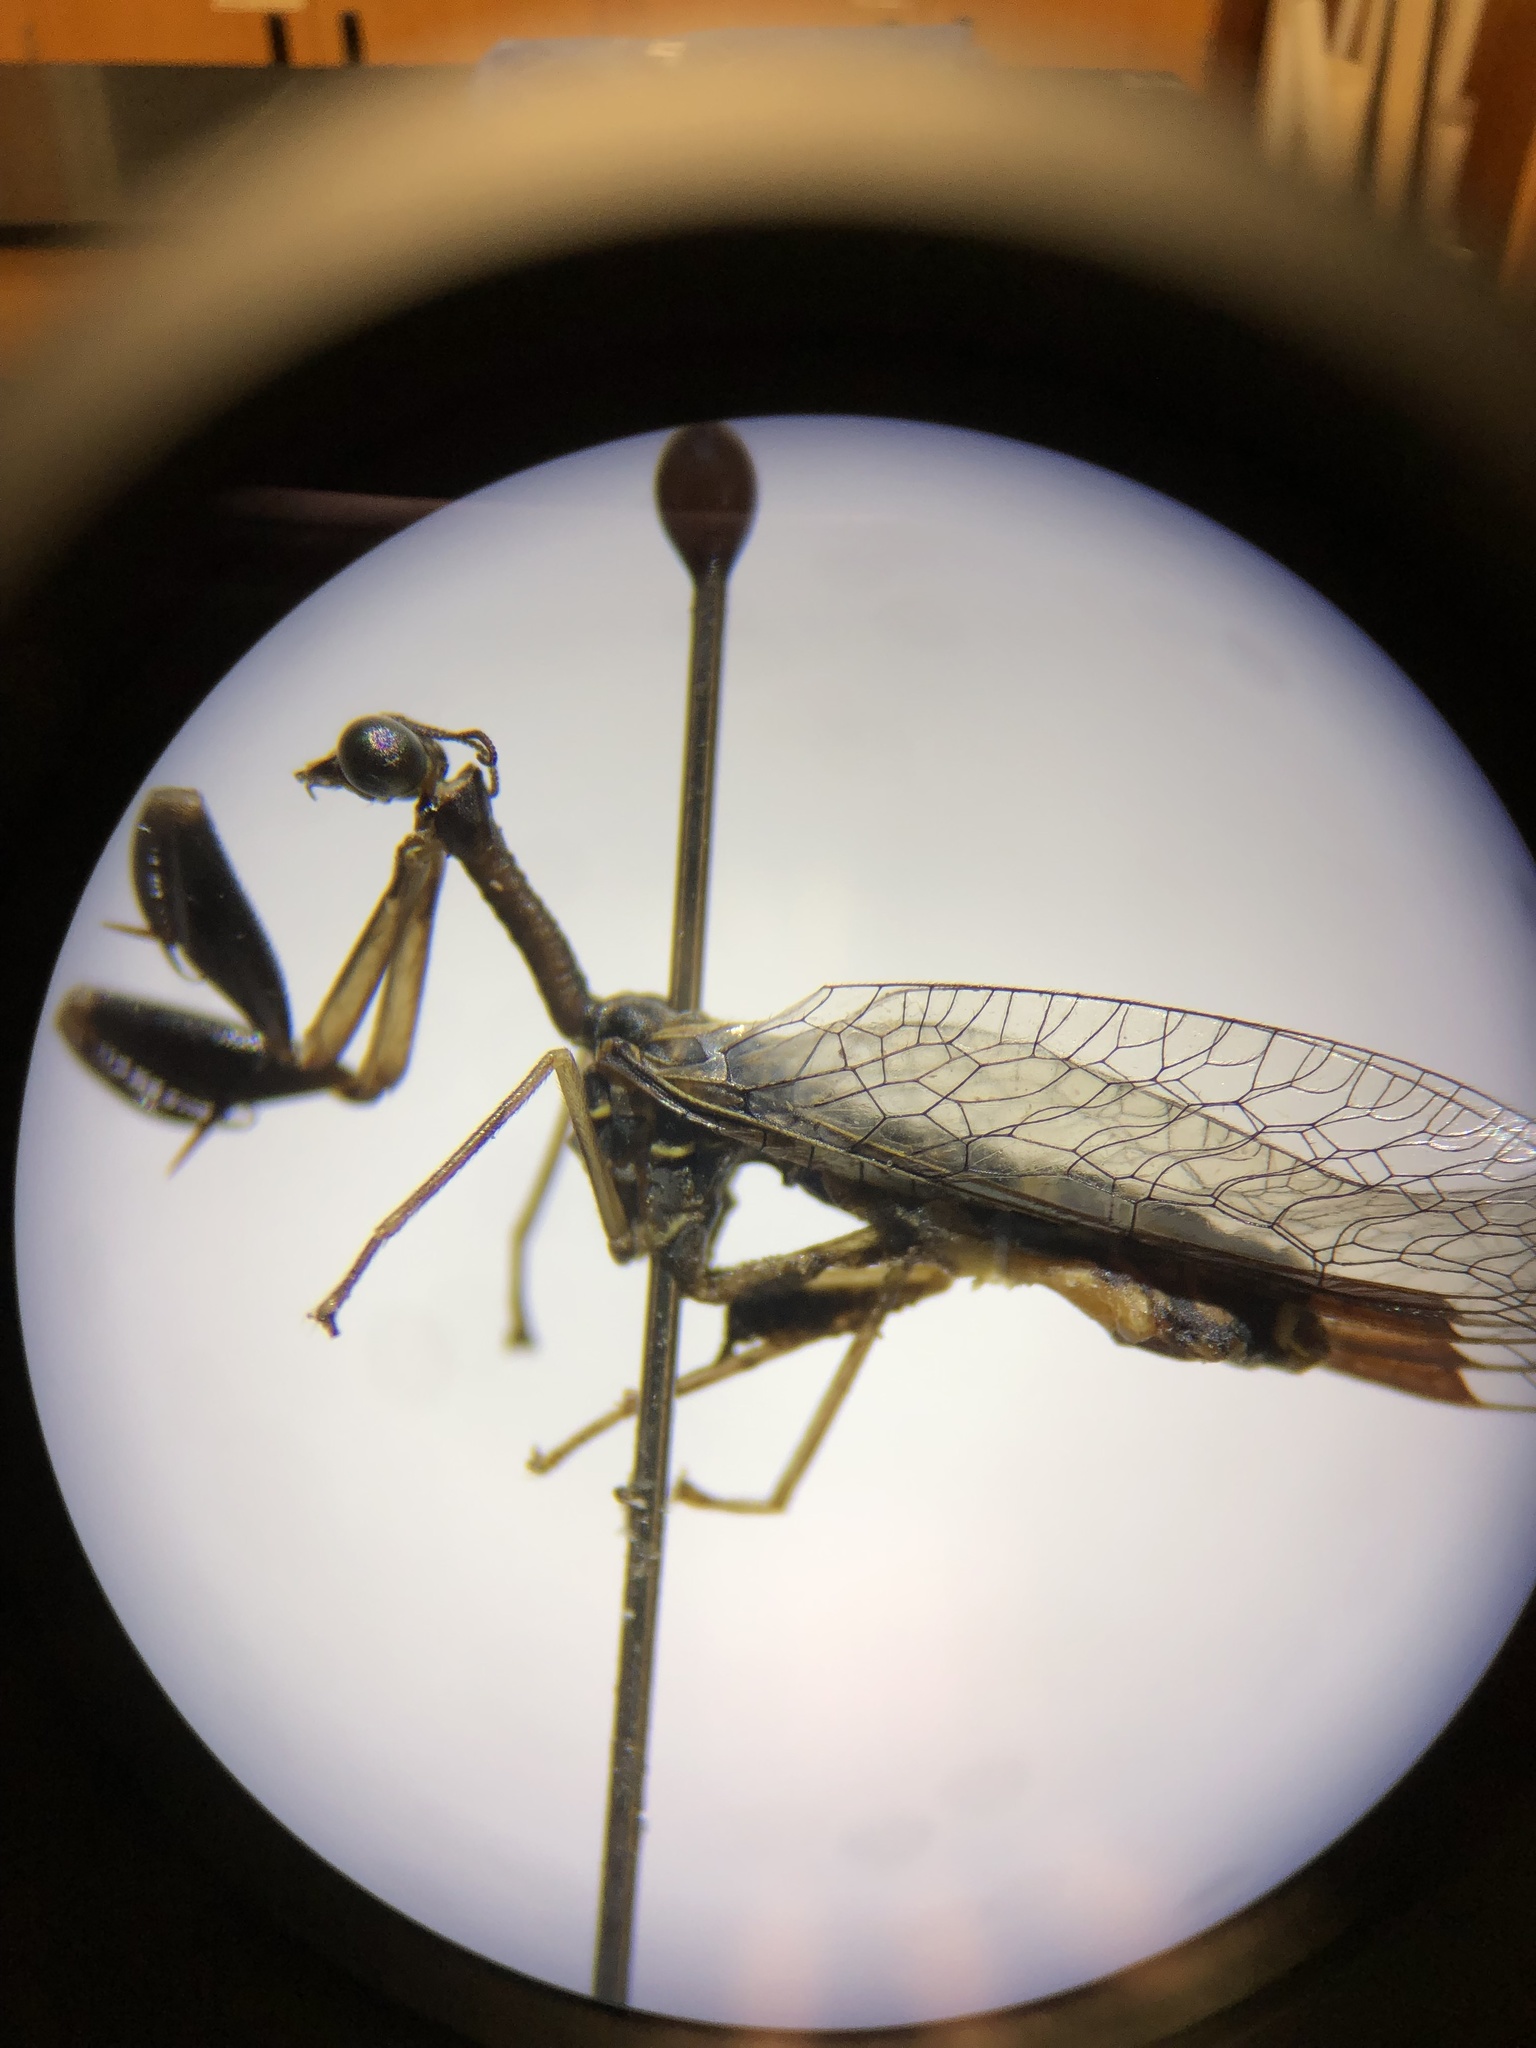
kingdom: Animalia
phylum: Arthropoda
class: Insecta
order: Neuroptera
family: Mantispidae
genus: Dicromantispa
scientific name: Dicromantispa sayi
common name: Say's mantidfly
